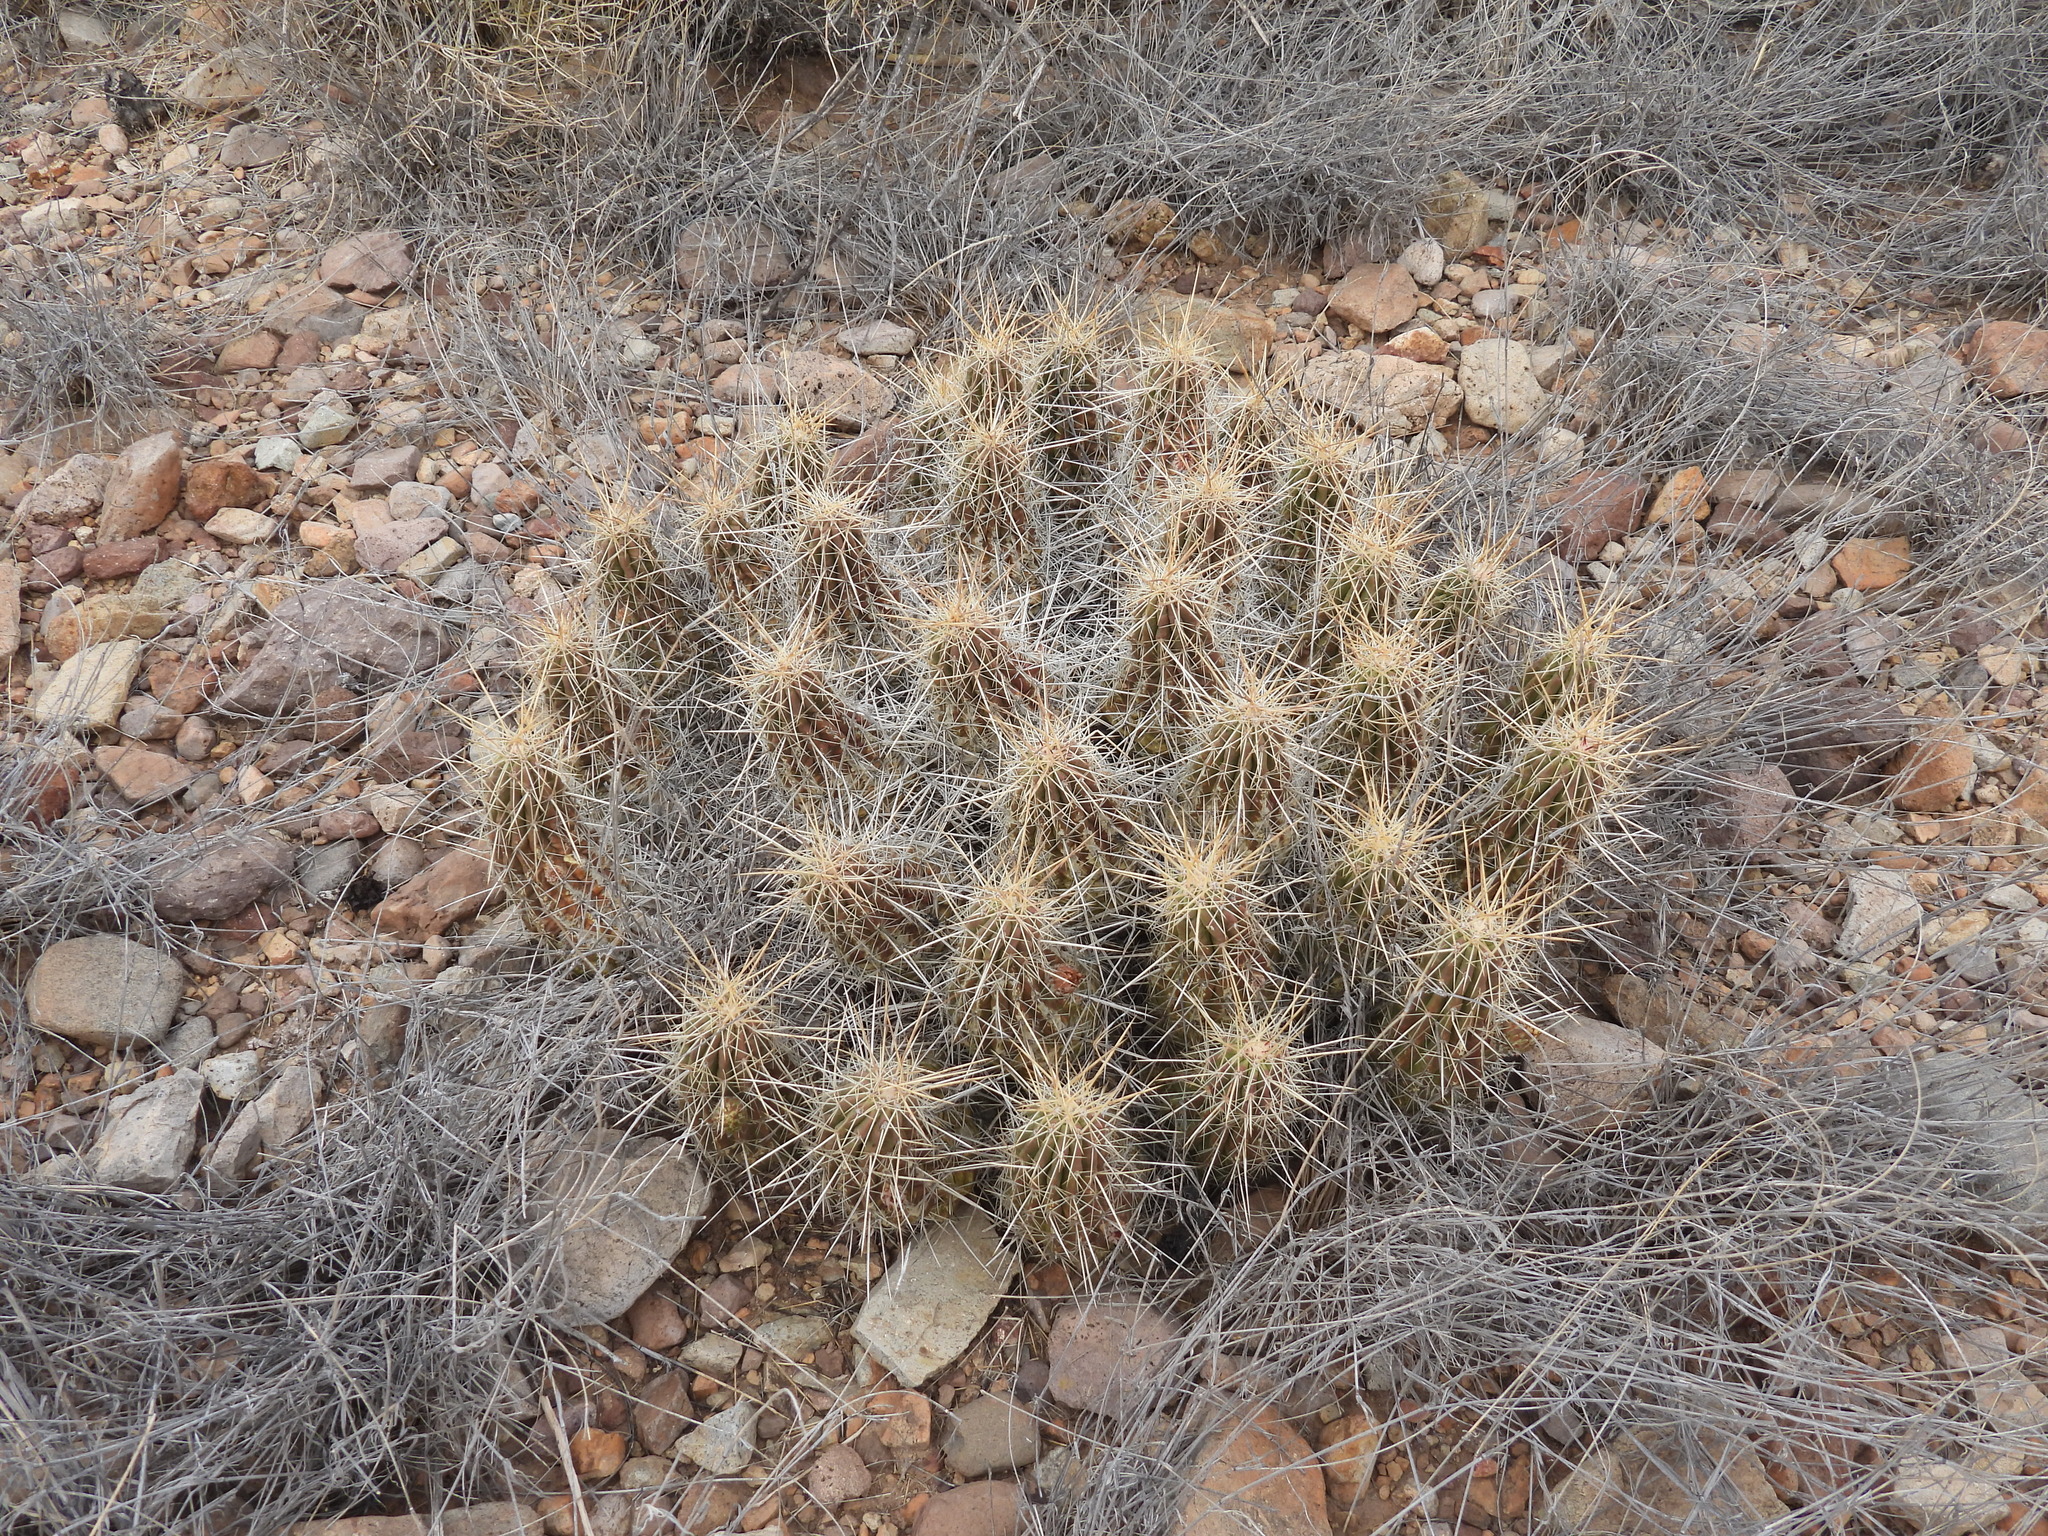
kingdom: Plantae
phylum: Tracheophyta
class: Magnoliopsida
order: Caryophyllales
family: Cactaceae
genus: Echinocereus
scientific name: Echinocereus stramineus
